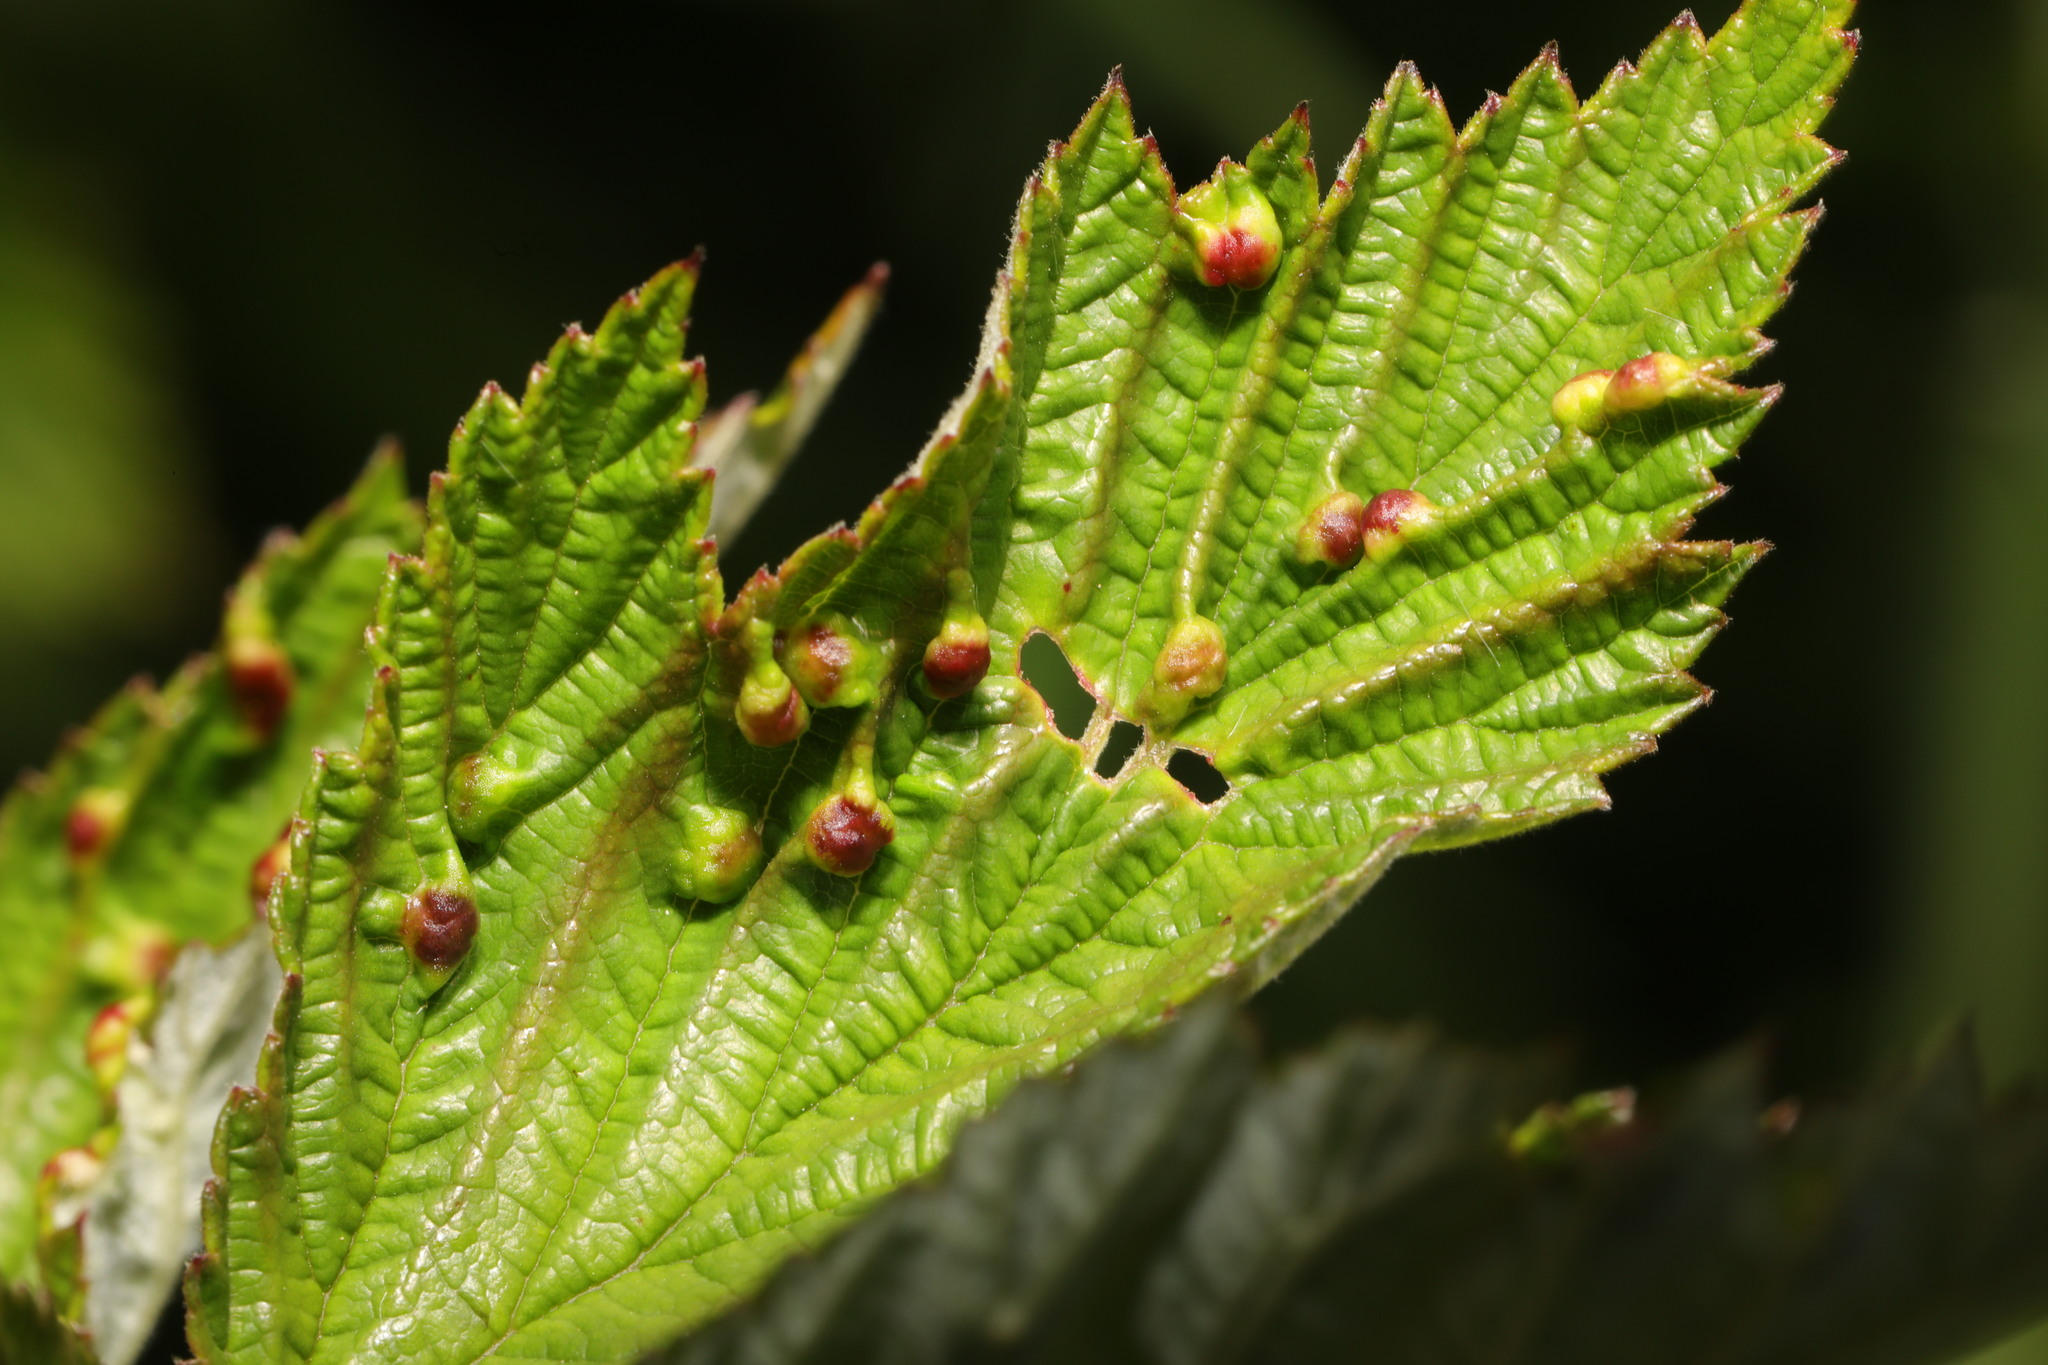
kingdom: Animalia
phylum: Arthropoda
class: Insecta
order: Diptera
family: Cecidomyiidae
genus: Dasineura
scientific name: Dasineura ulmaria
